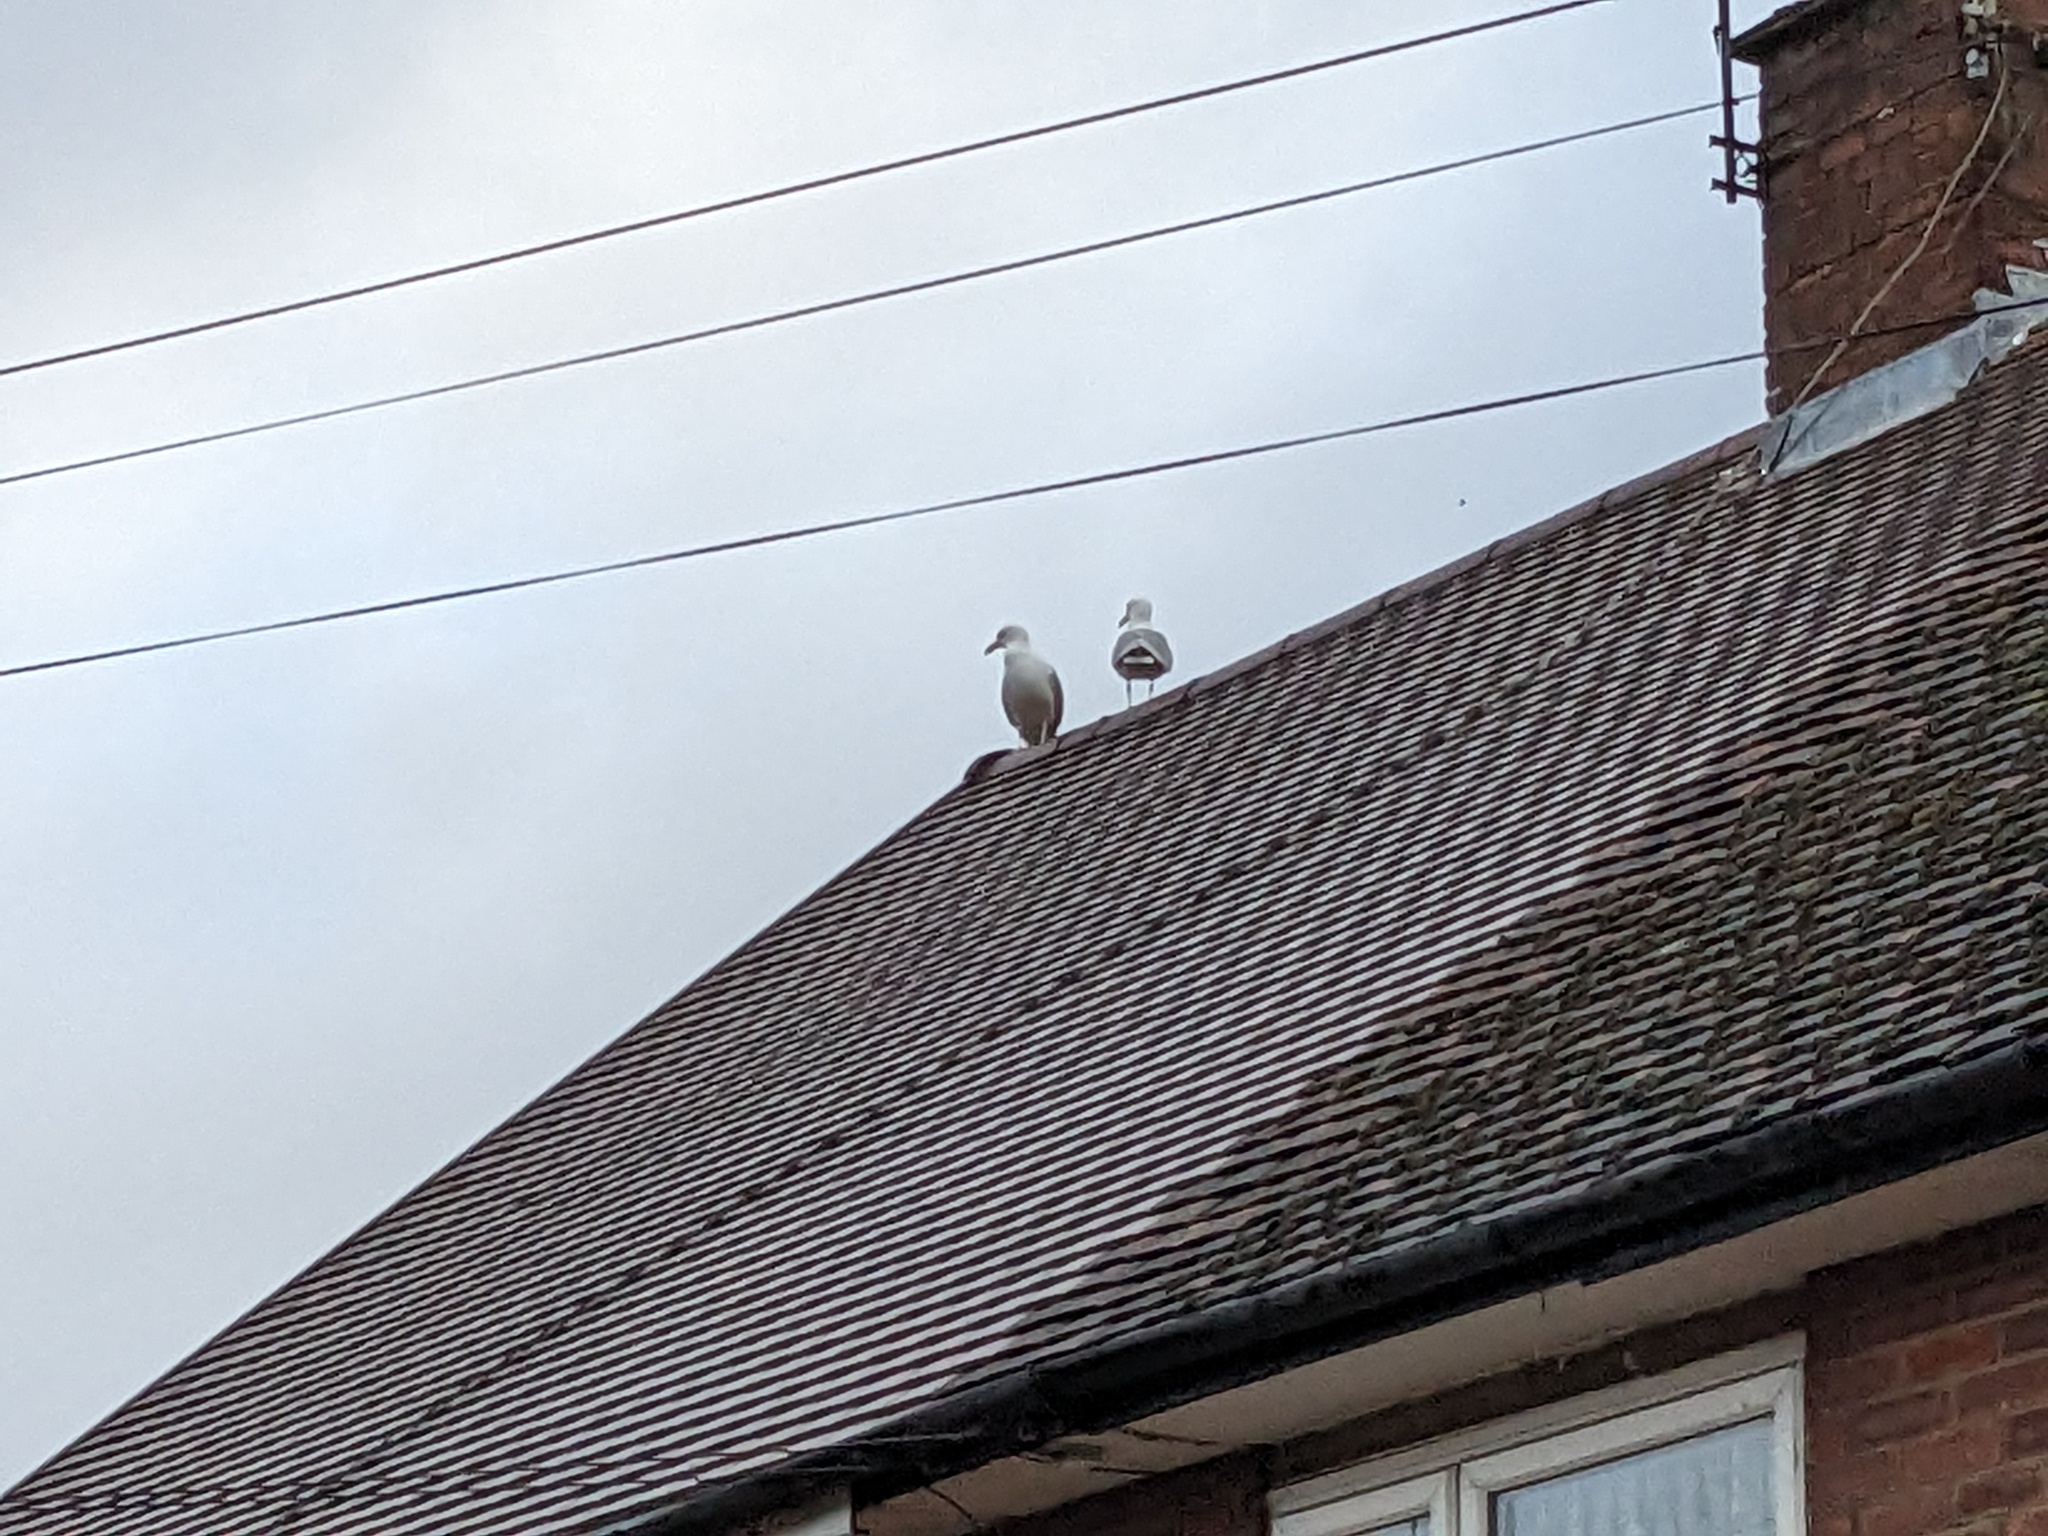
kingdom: Animalia
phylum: Chordata
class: Aves
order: Charadriiformes
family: Laridae
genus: Larus
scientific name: Larus argentatus
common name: Herring gull
